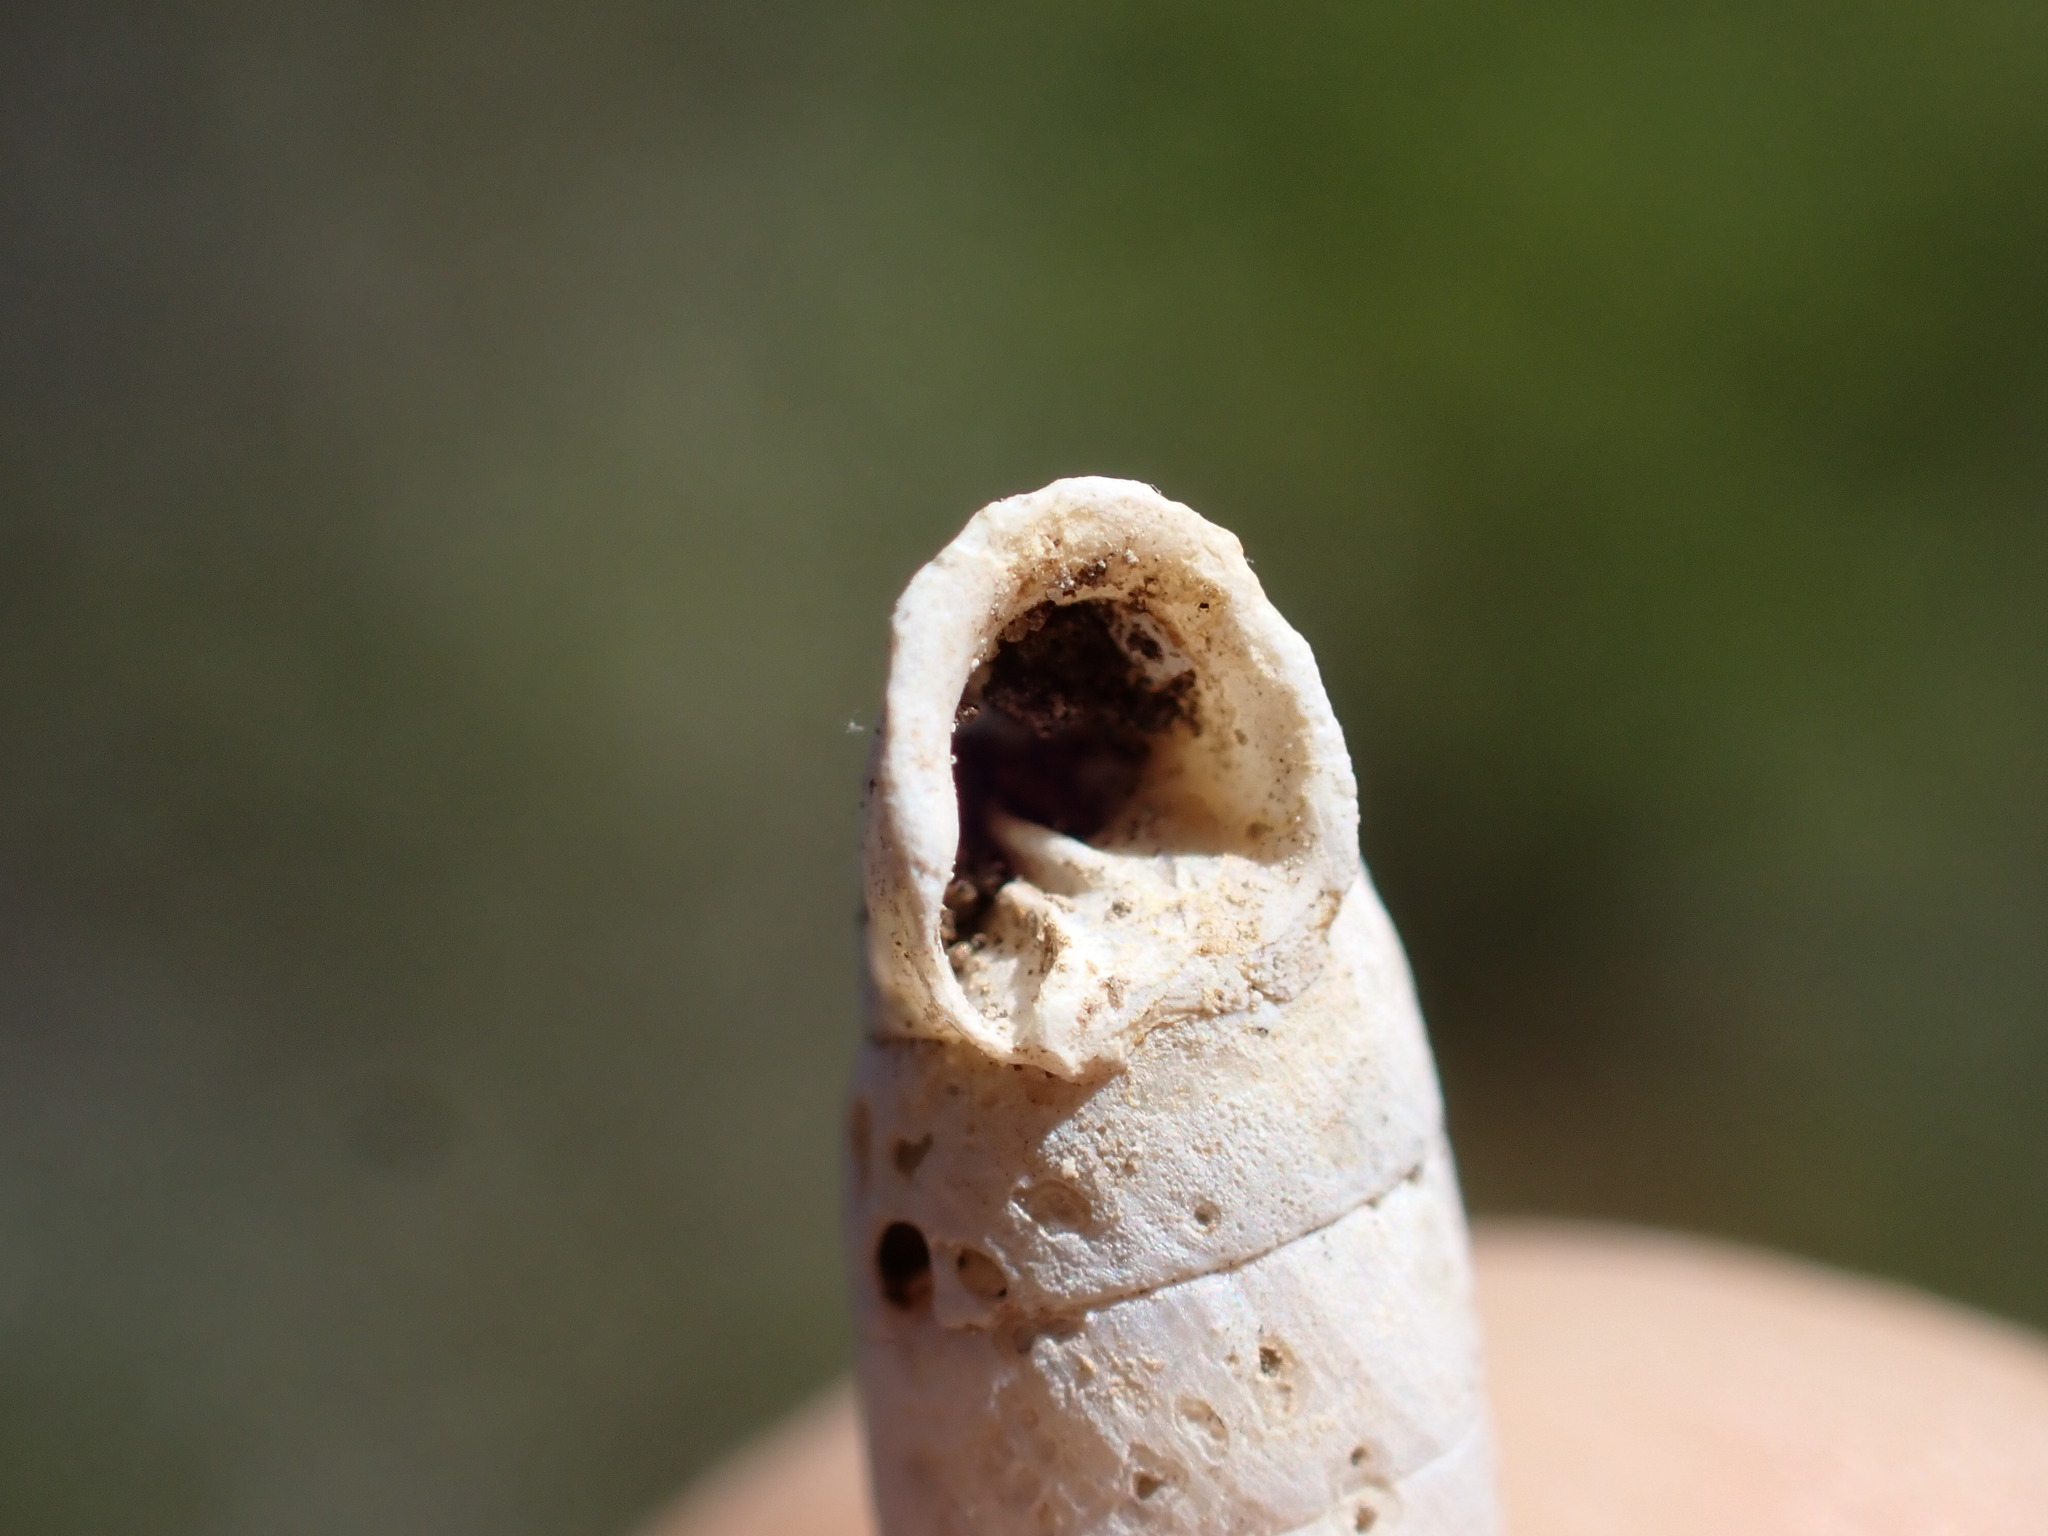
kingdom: Animalia
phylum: Mollusca
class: Gastropoda
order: Stylommatophora
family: Chondrinidae
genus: Granaria
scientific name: Granaria variabilis
